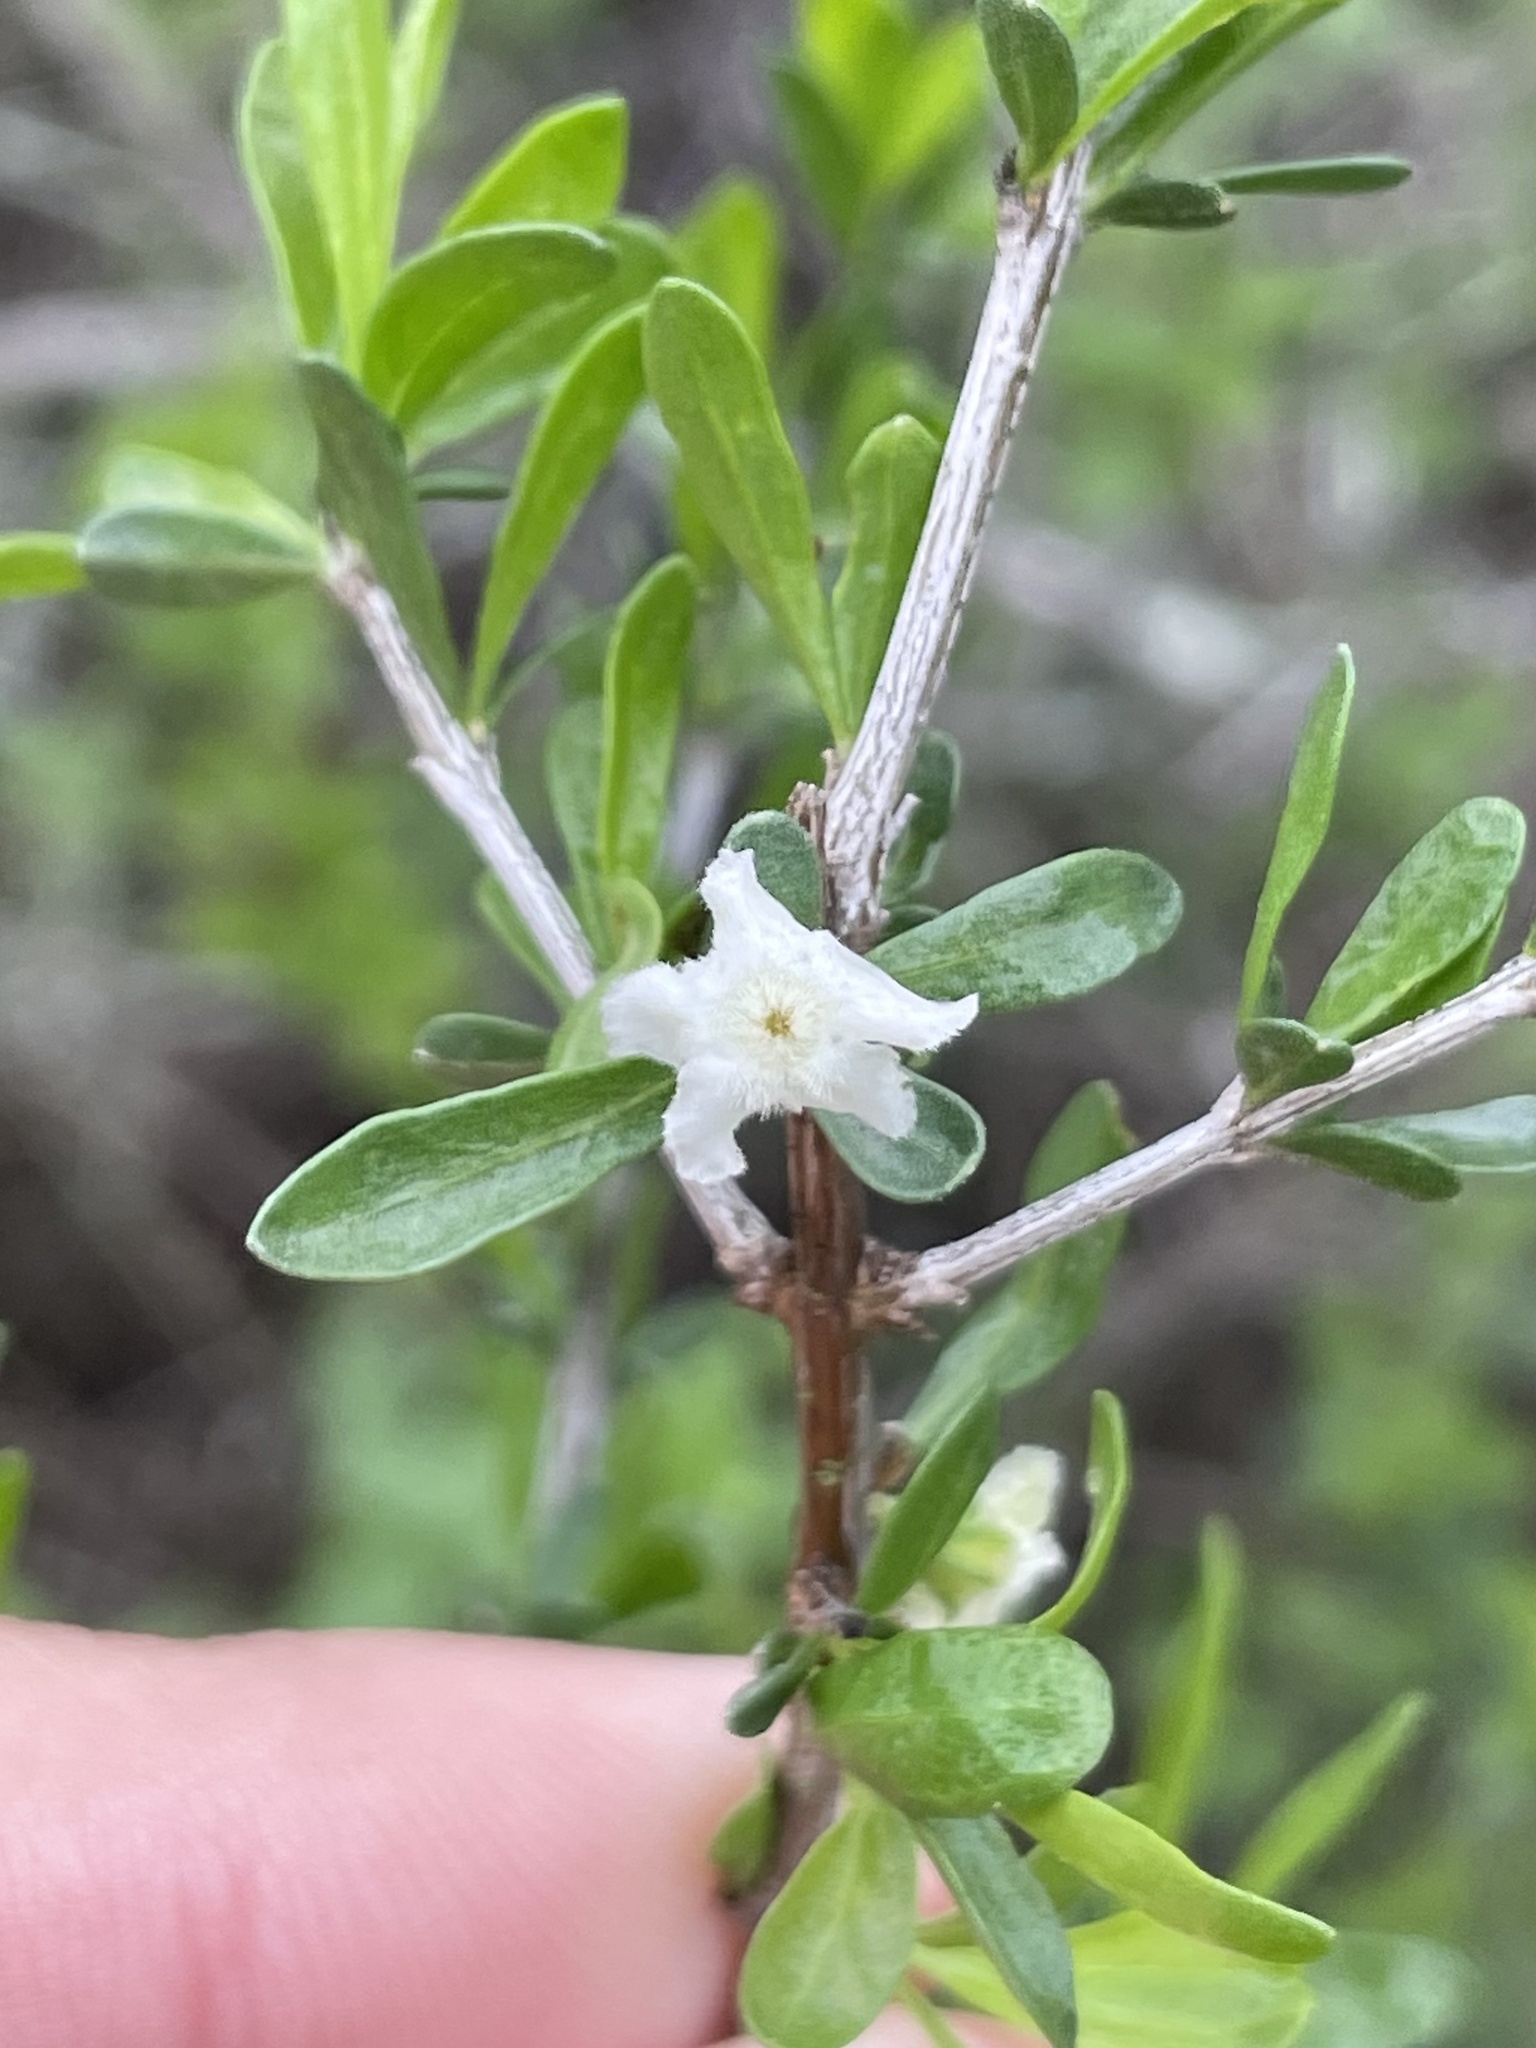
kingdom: Plantae
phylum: Tracheophyta
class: Magnoliopsida
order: Lamiales
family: Verbenaceae
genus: Citharexylum
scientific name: Citharexylum brachyanthum
